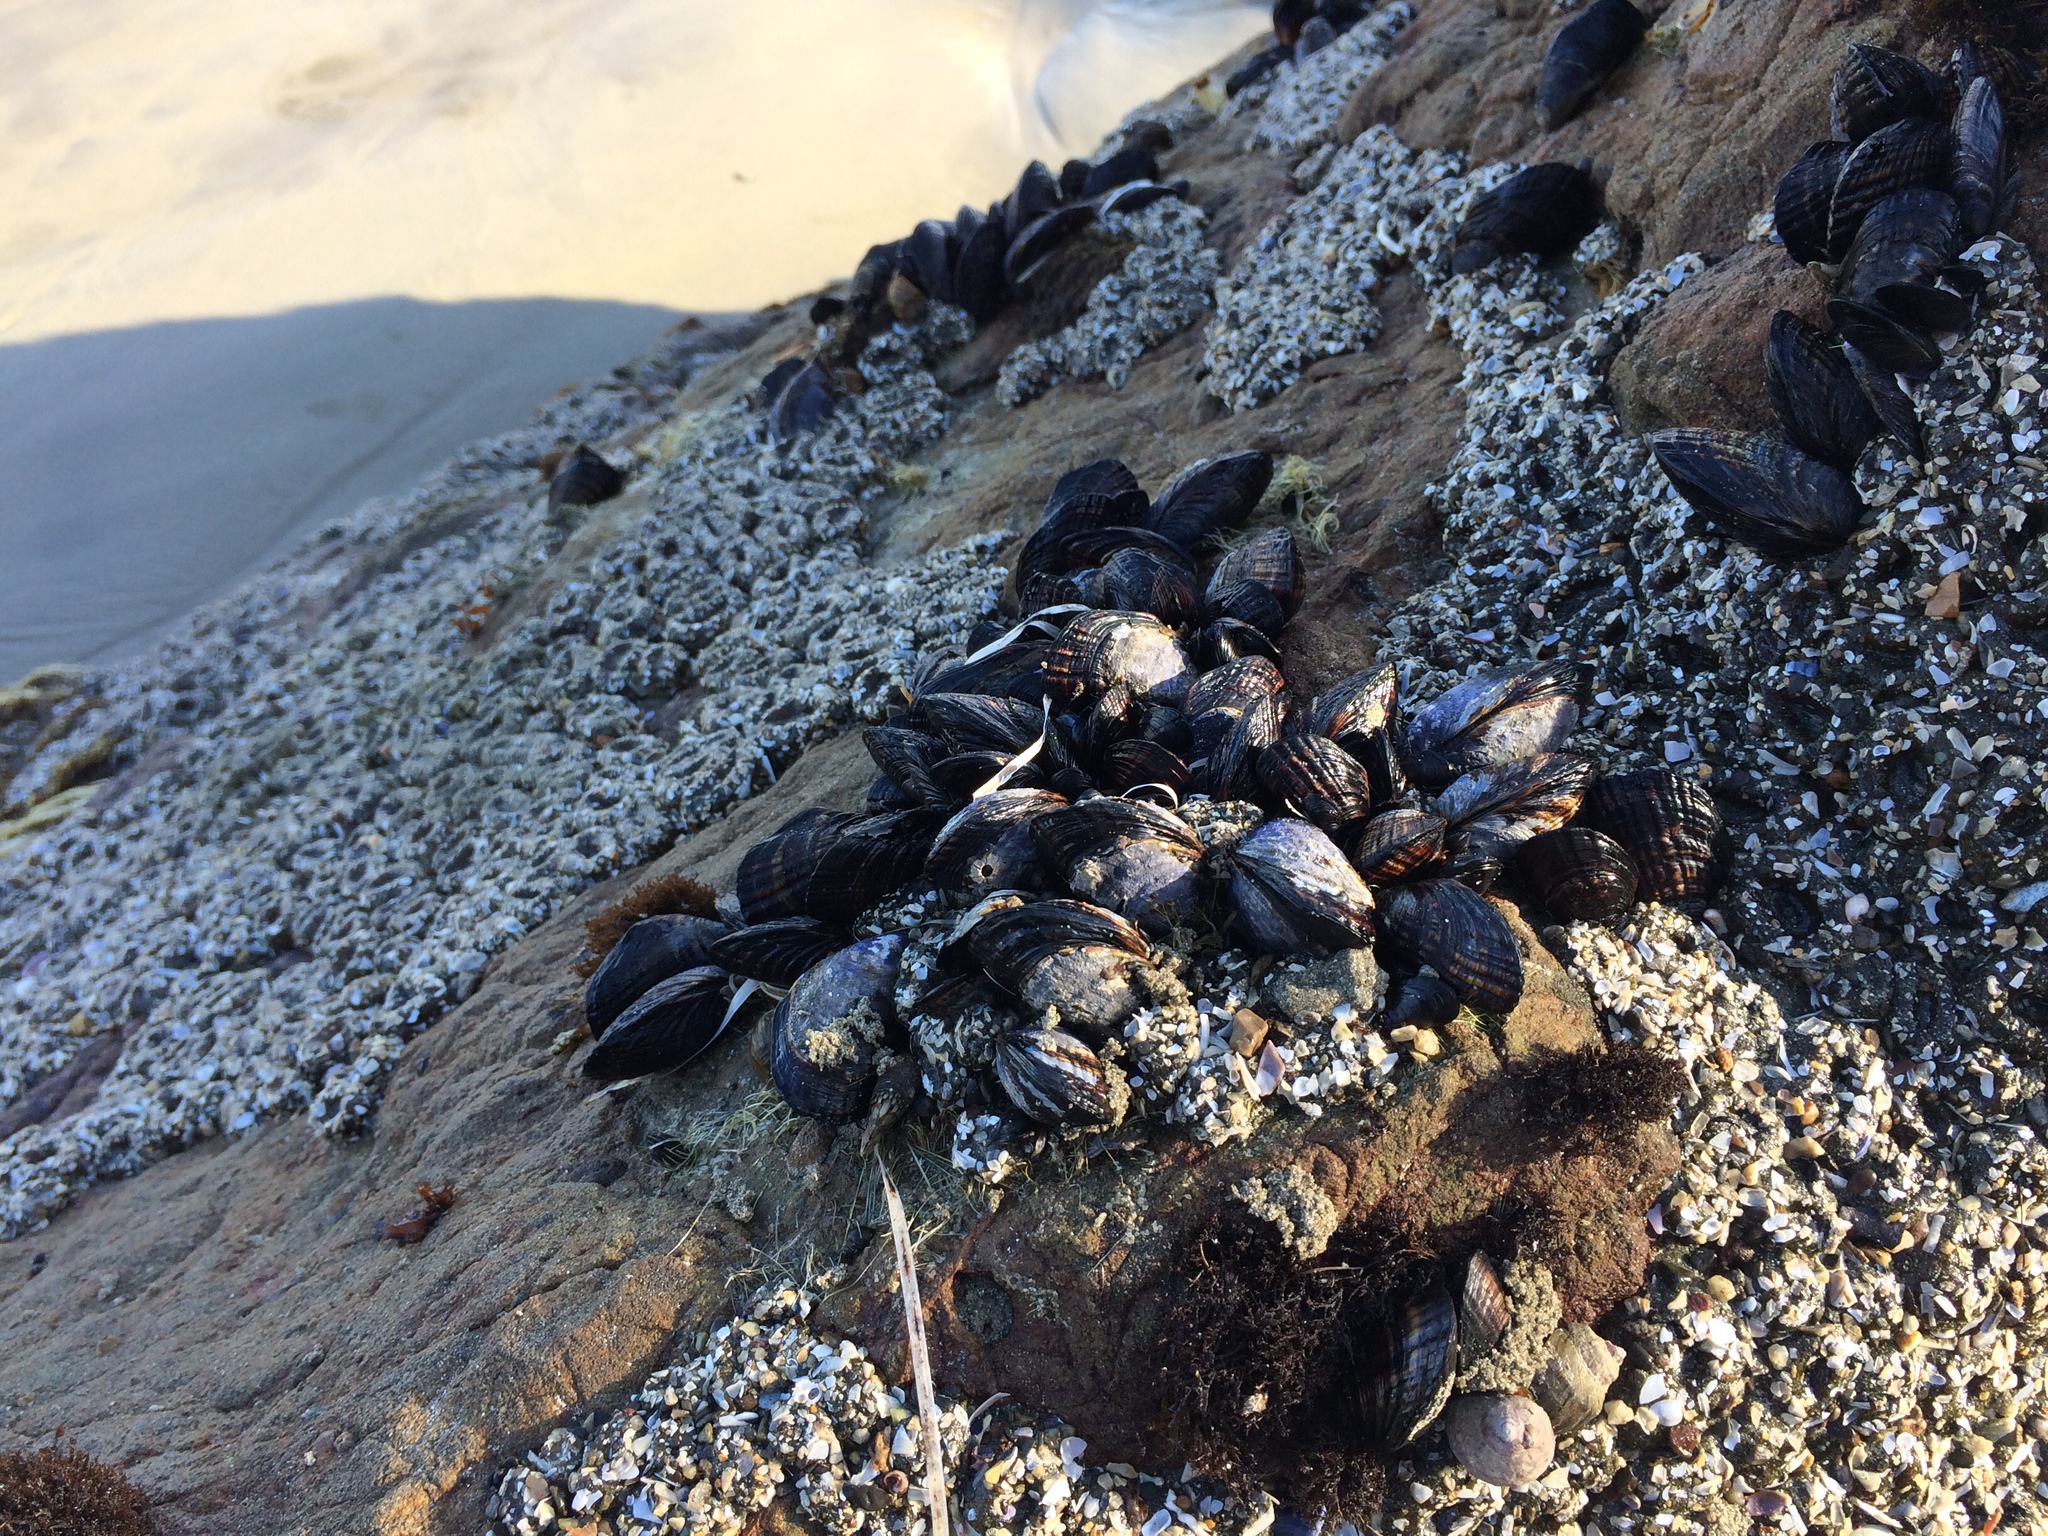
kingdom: Animalia
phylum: Mollusca
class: Bivalvia
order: Mytilida
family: Mytilidae
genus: Mytilus
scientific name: Mytilus californianus
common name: California mussel
